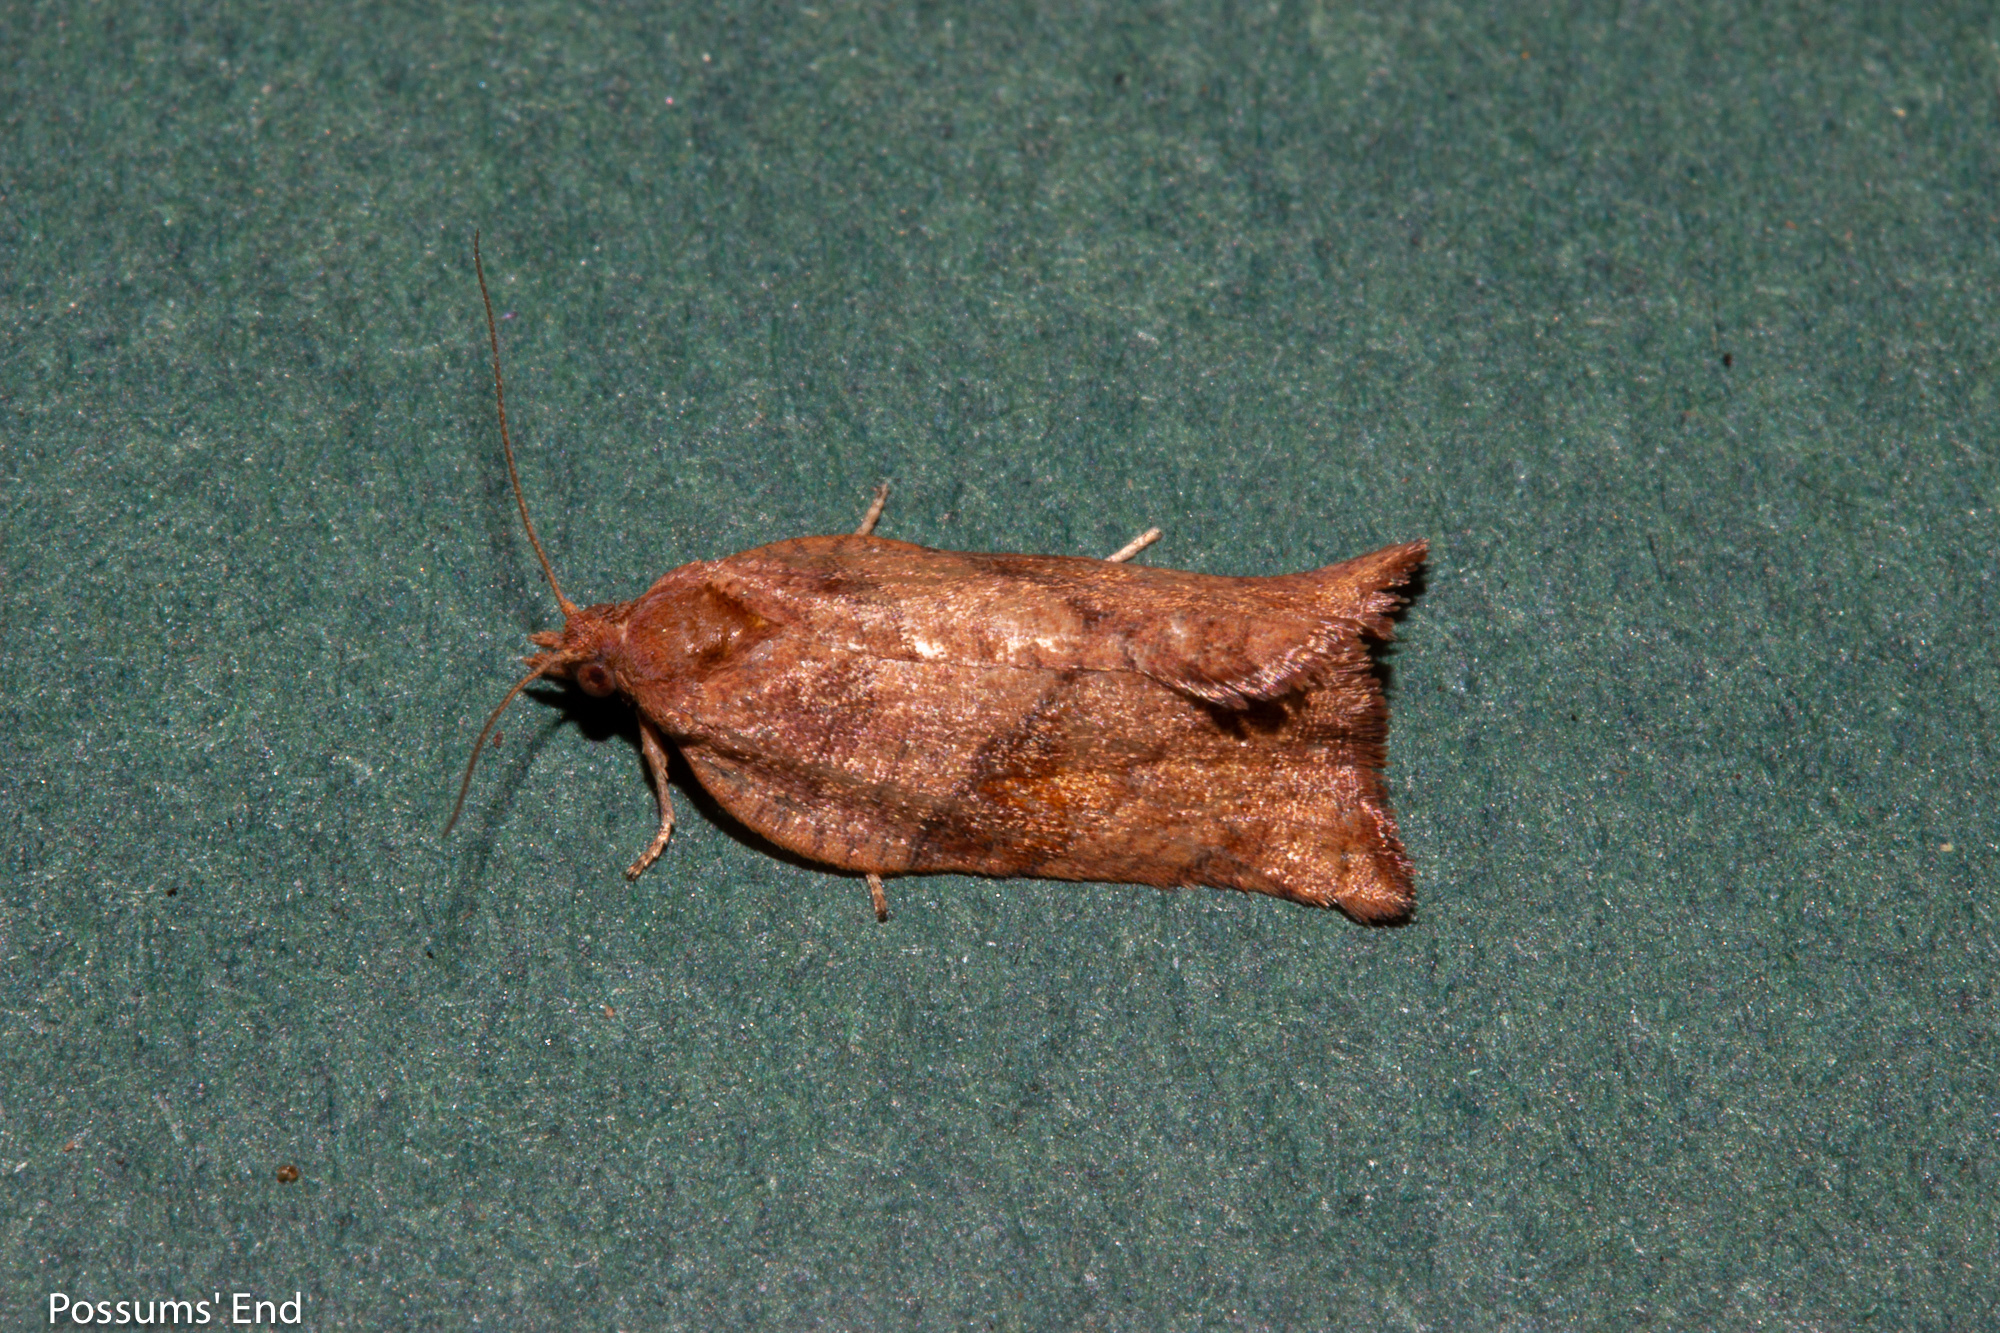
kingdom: Animalia
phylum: Arthropoda
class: Insecta
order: Lepidoptera
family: Tortricidae
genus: Pyrgotis
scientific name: Pyrgotis eudorana
